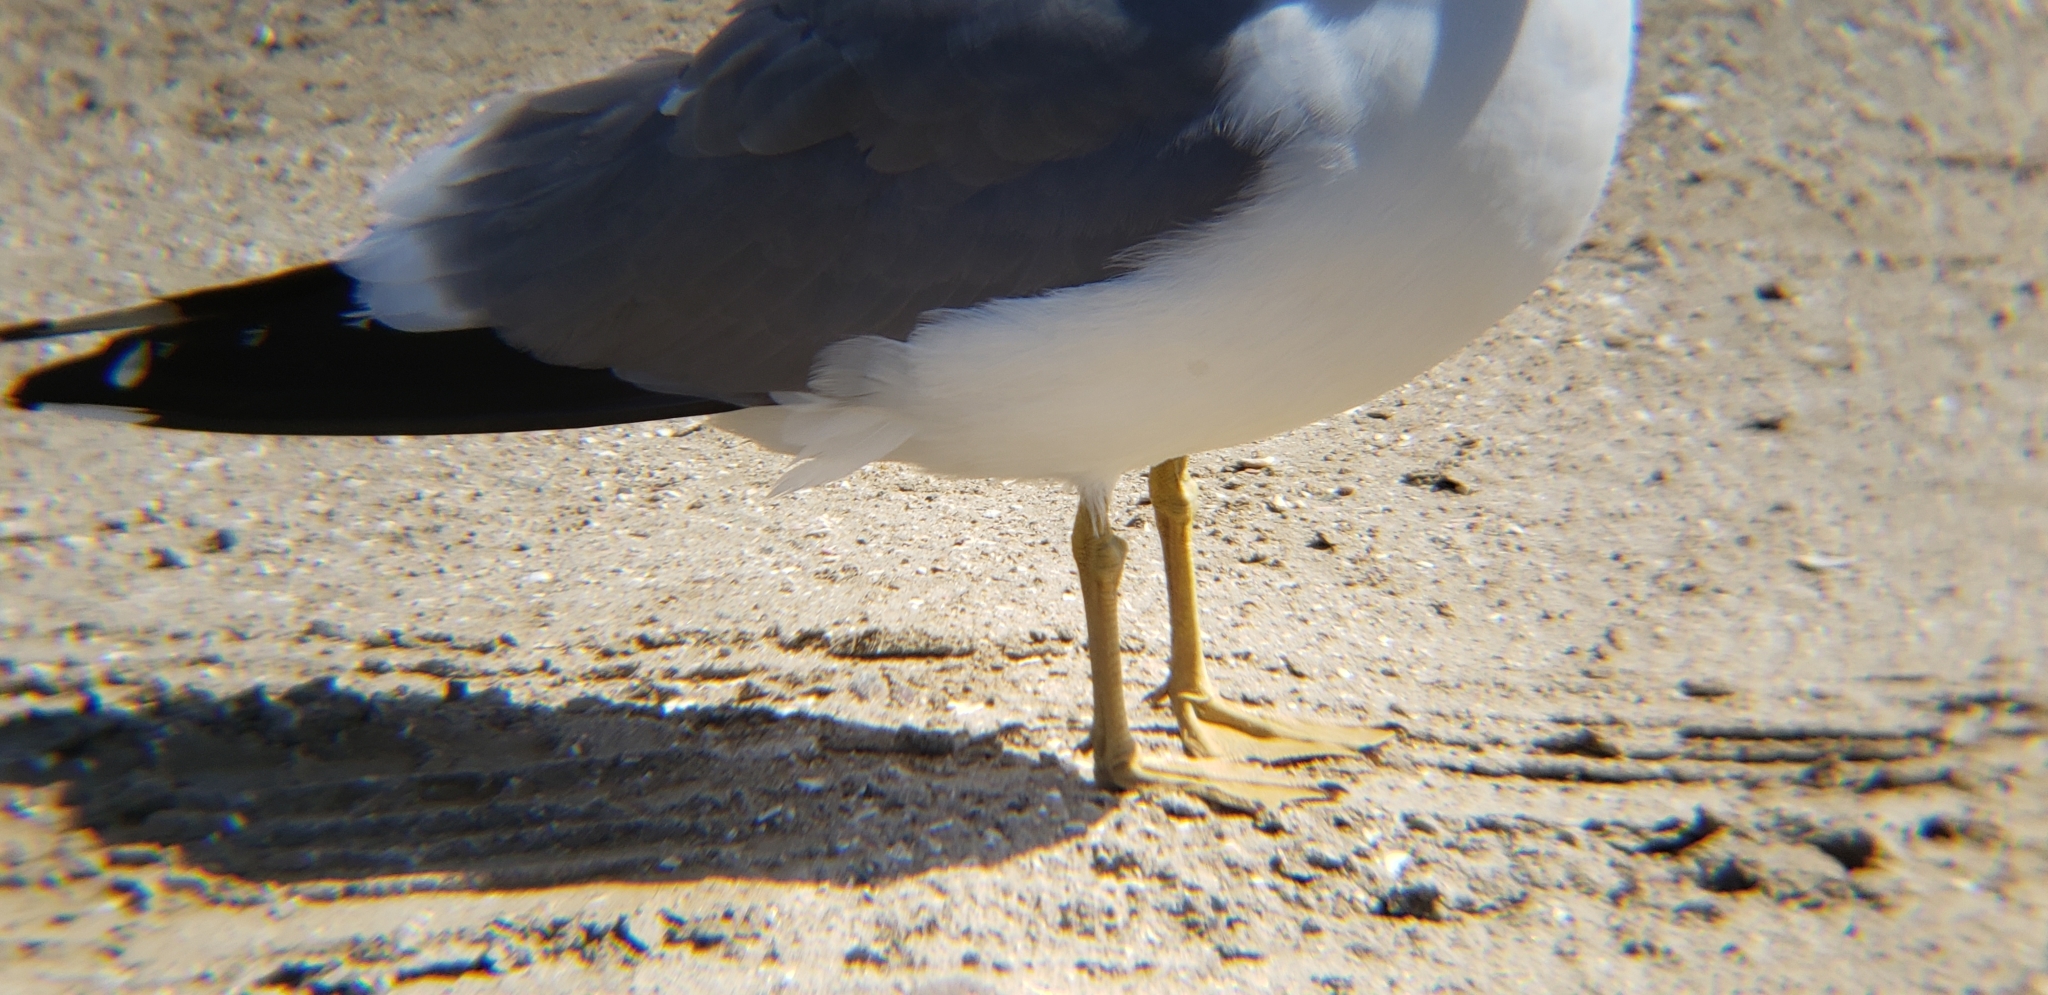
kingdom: Animalia
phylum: Chordata
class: Aves
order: Charadriiformes
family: Laridae
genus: Larus
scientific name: Larus californicus
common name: California gull
